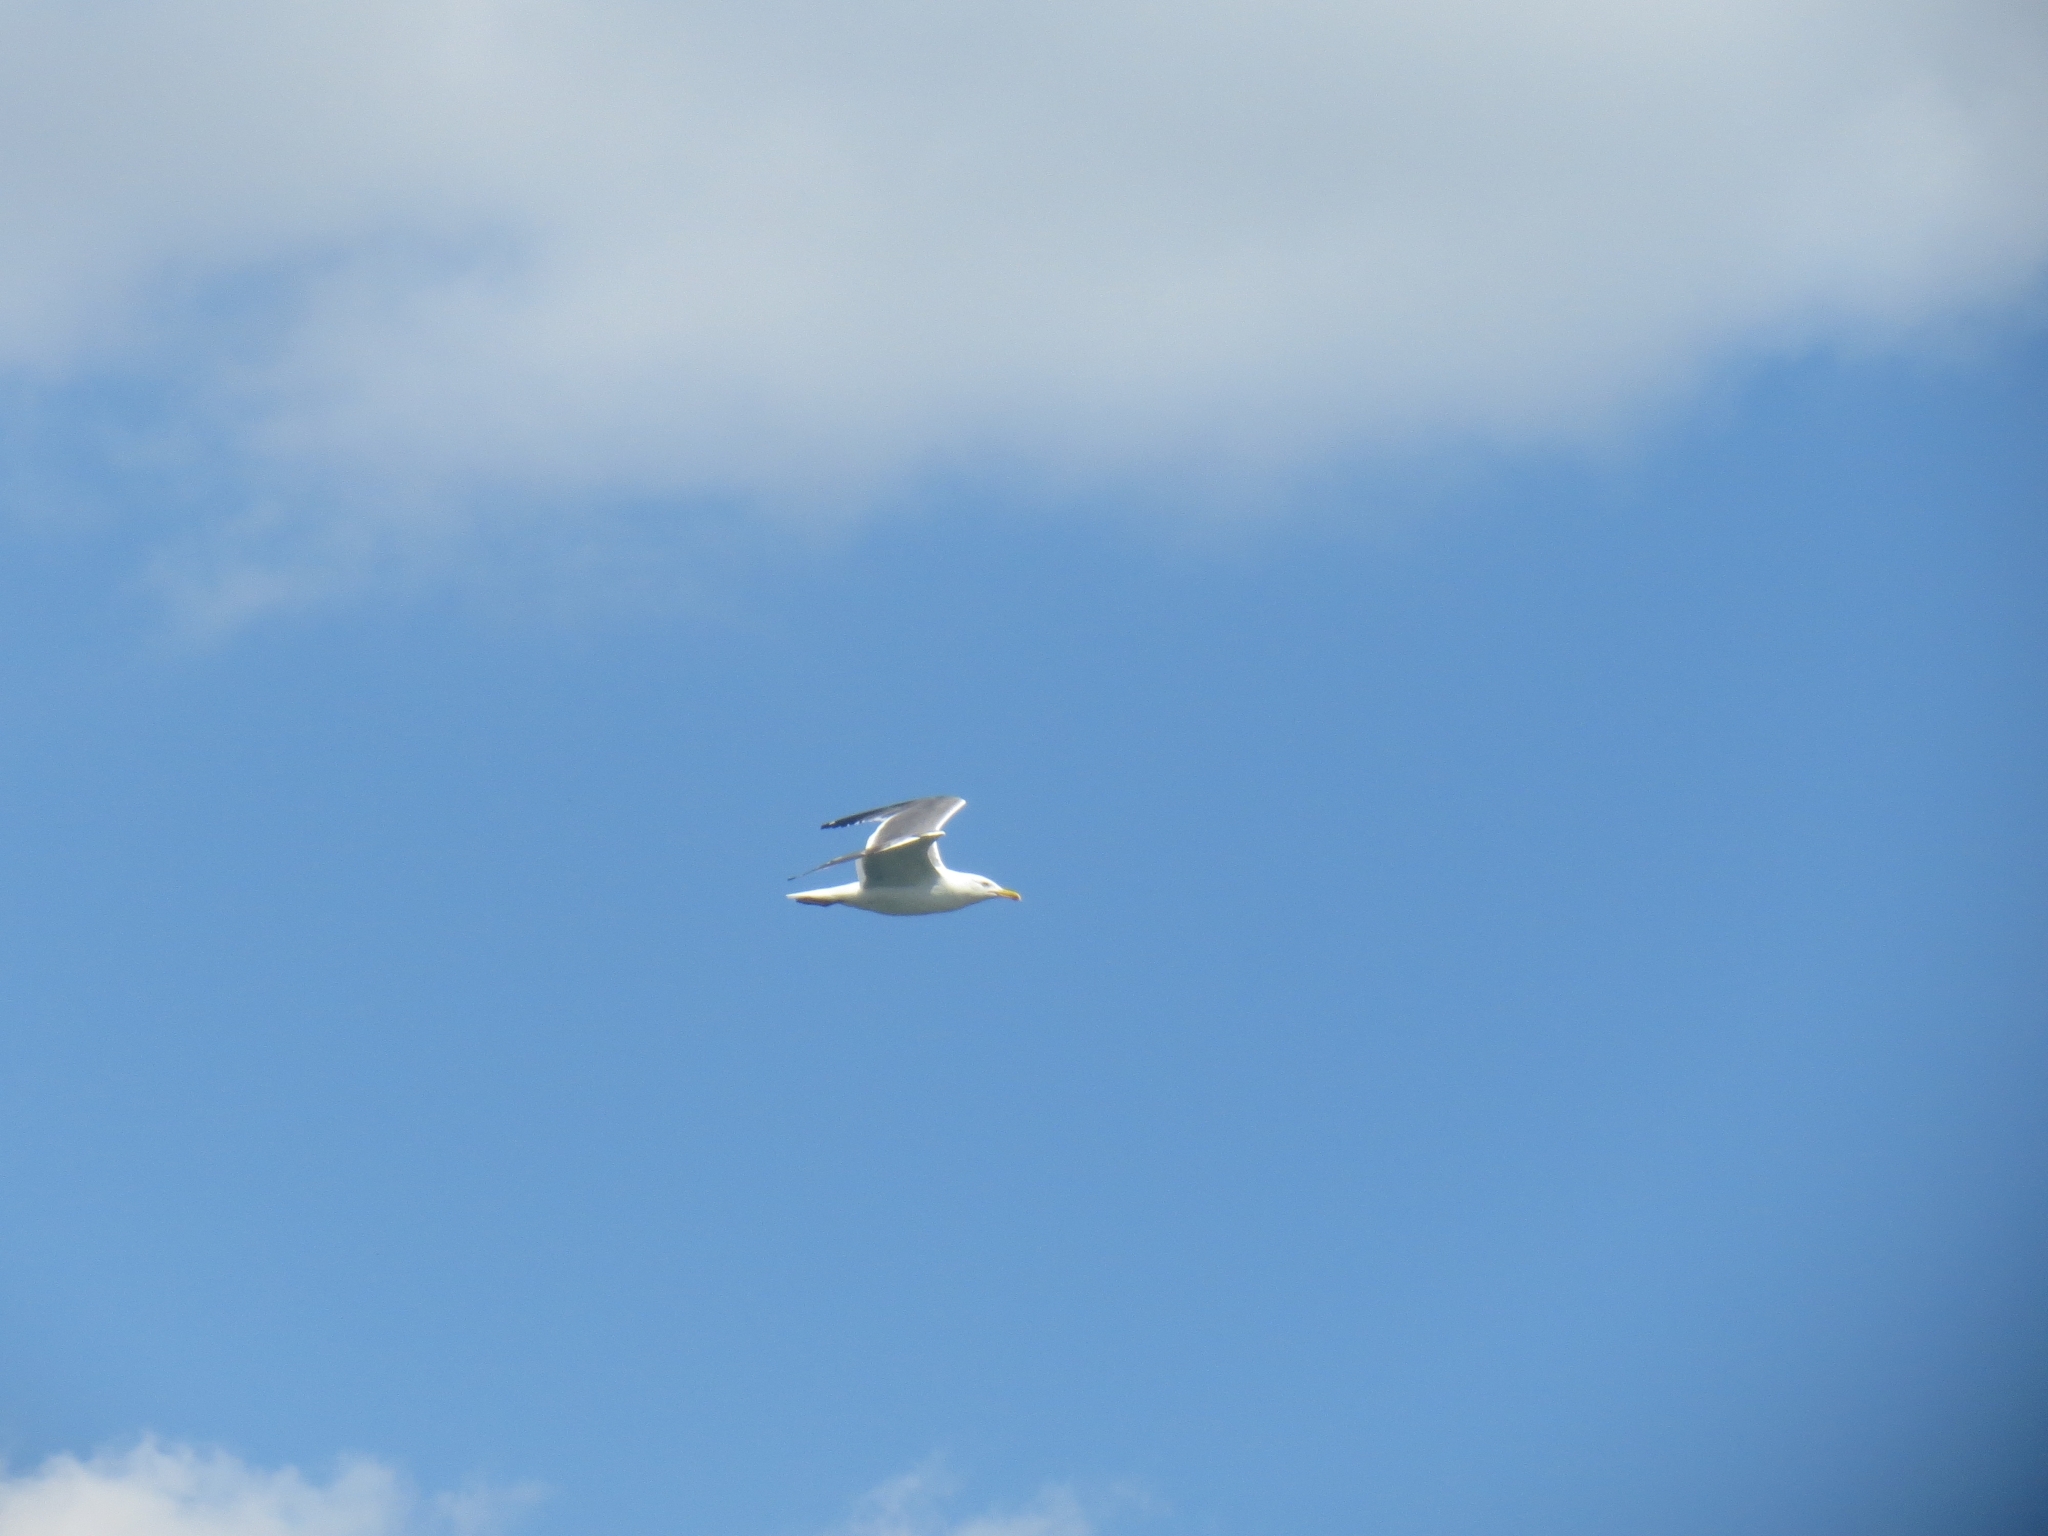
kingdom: Animalia
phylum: Chordata
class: Aves
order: Charadriiformes
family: Laridae
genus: Larus
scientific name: Larus fuscus
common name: Lesser black-backed gull
